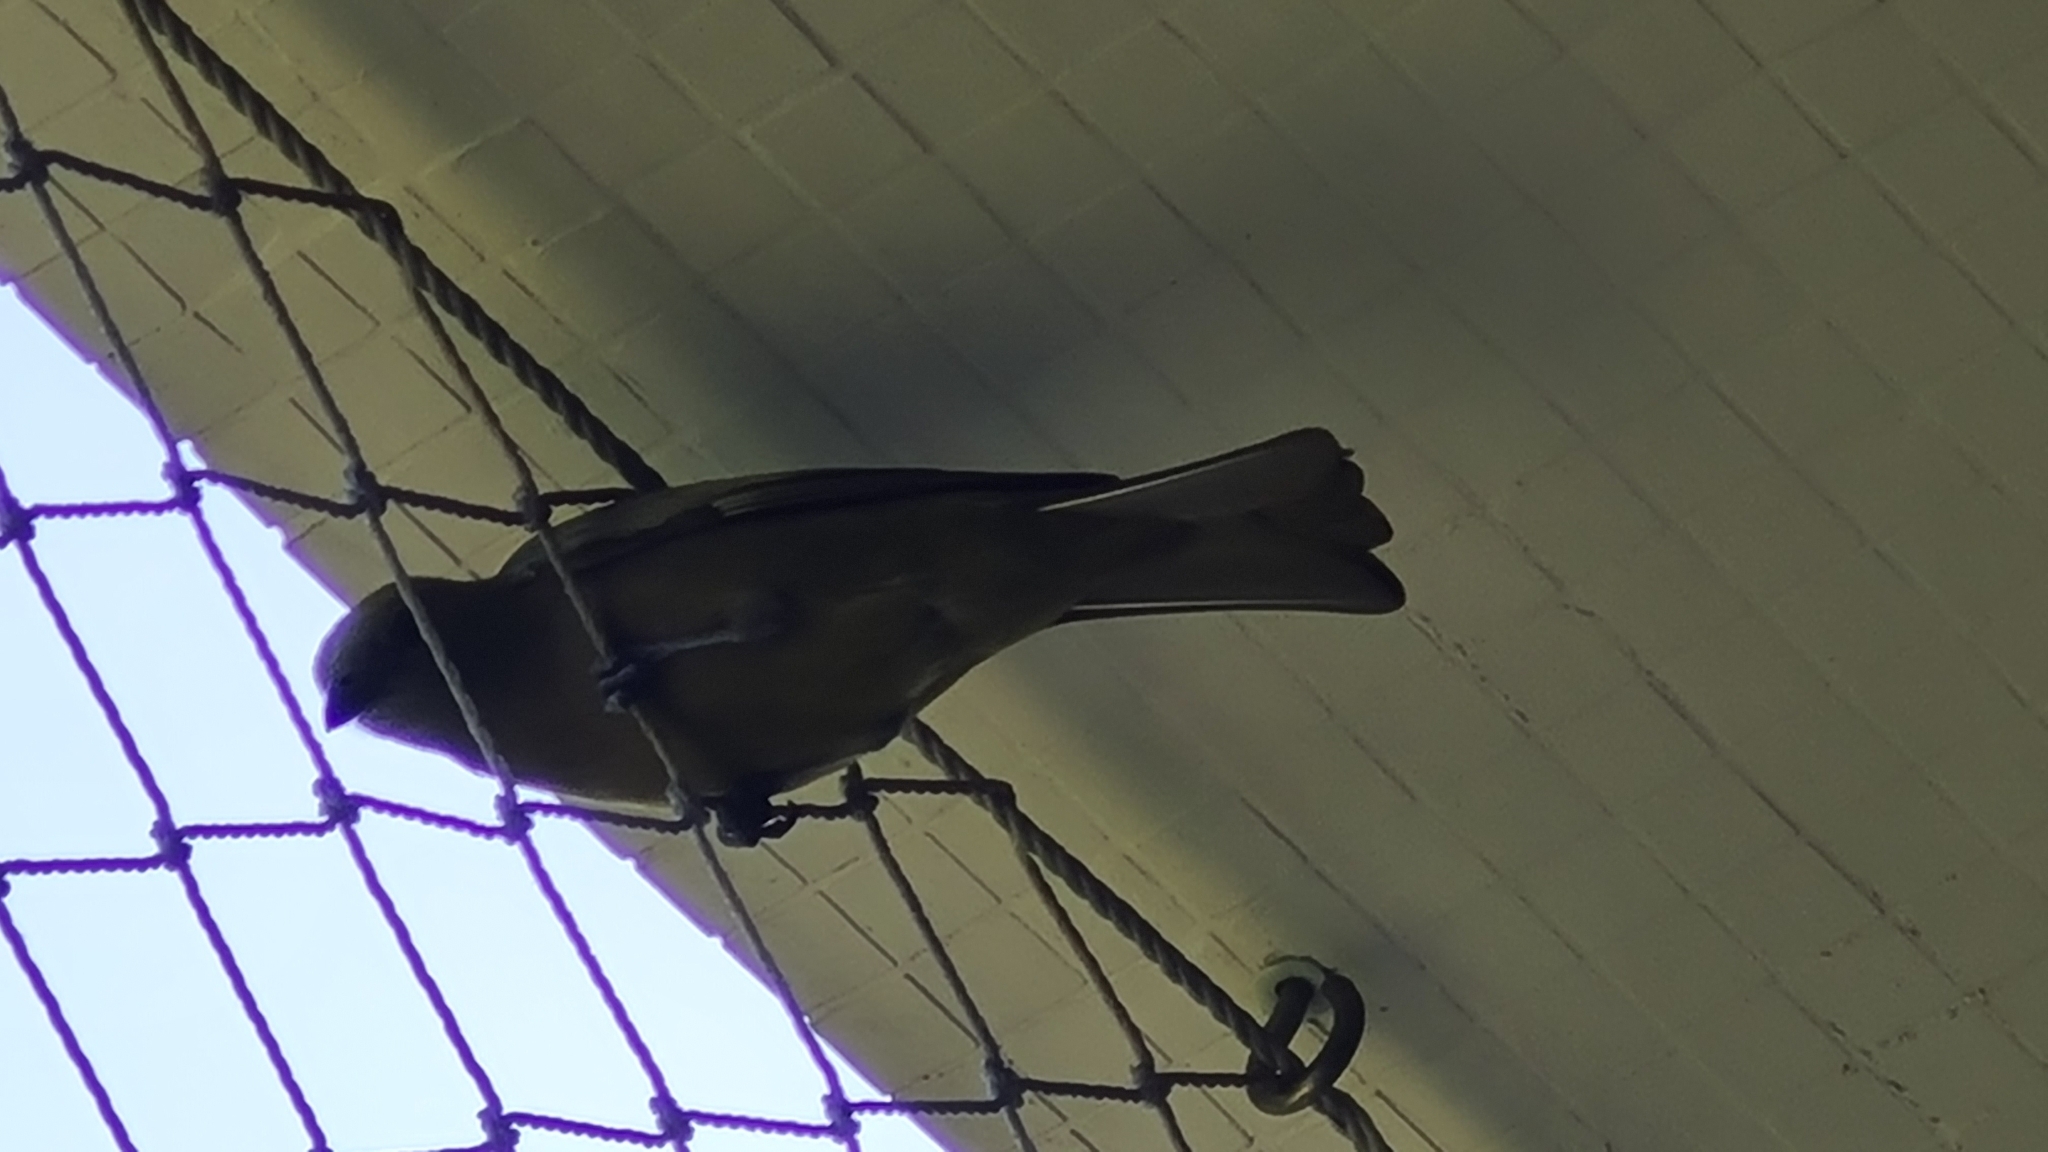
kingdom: Animalia
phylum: Chordata
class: Aves
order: Passeriformes
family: Thraupidae
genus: Thraupis
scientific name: Thraupis palmarum
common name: Palm tanager
